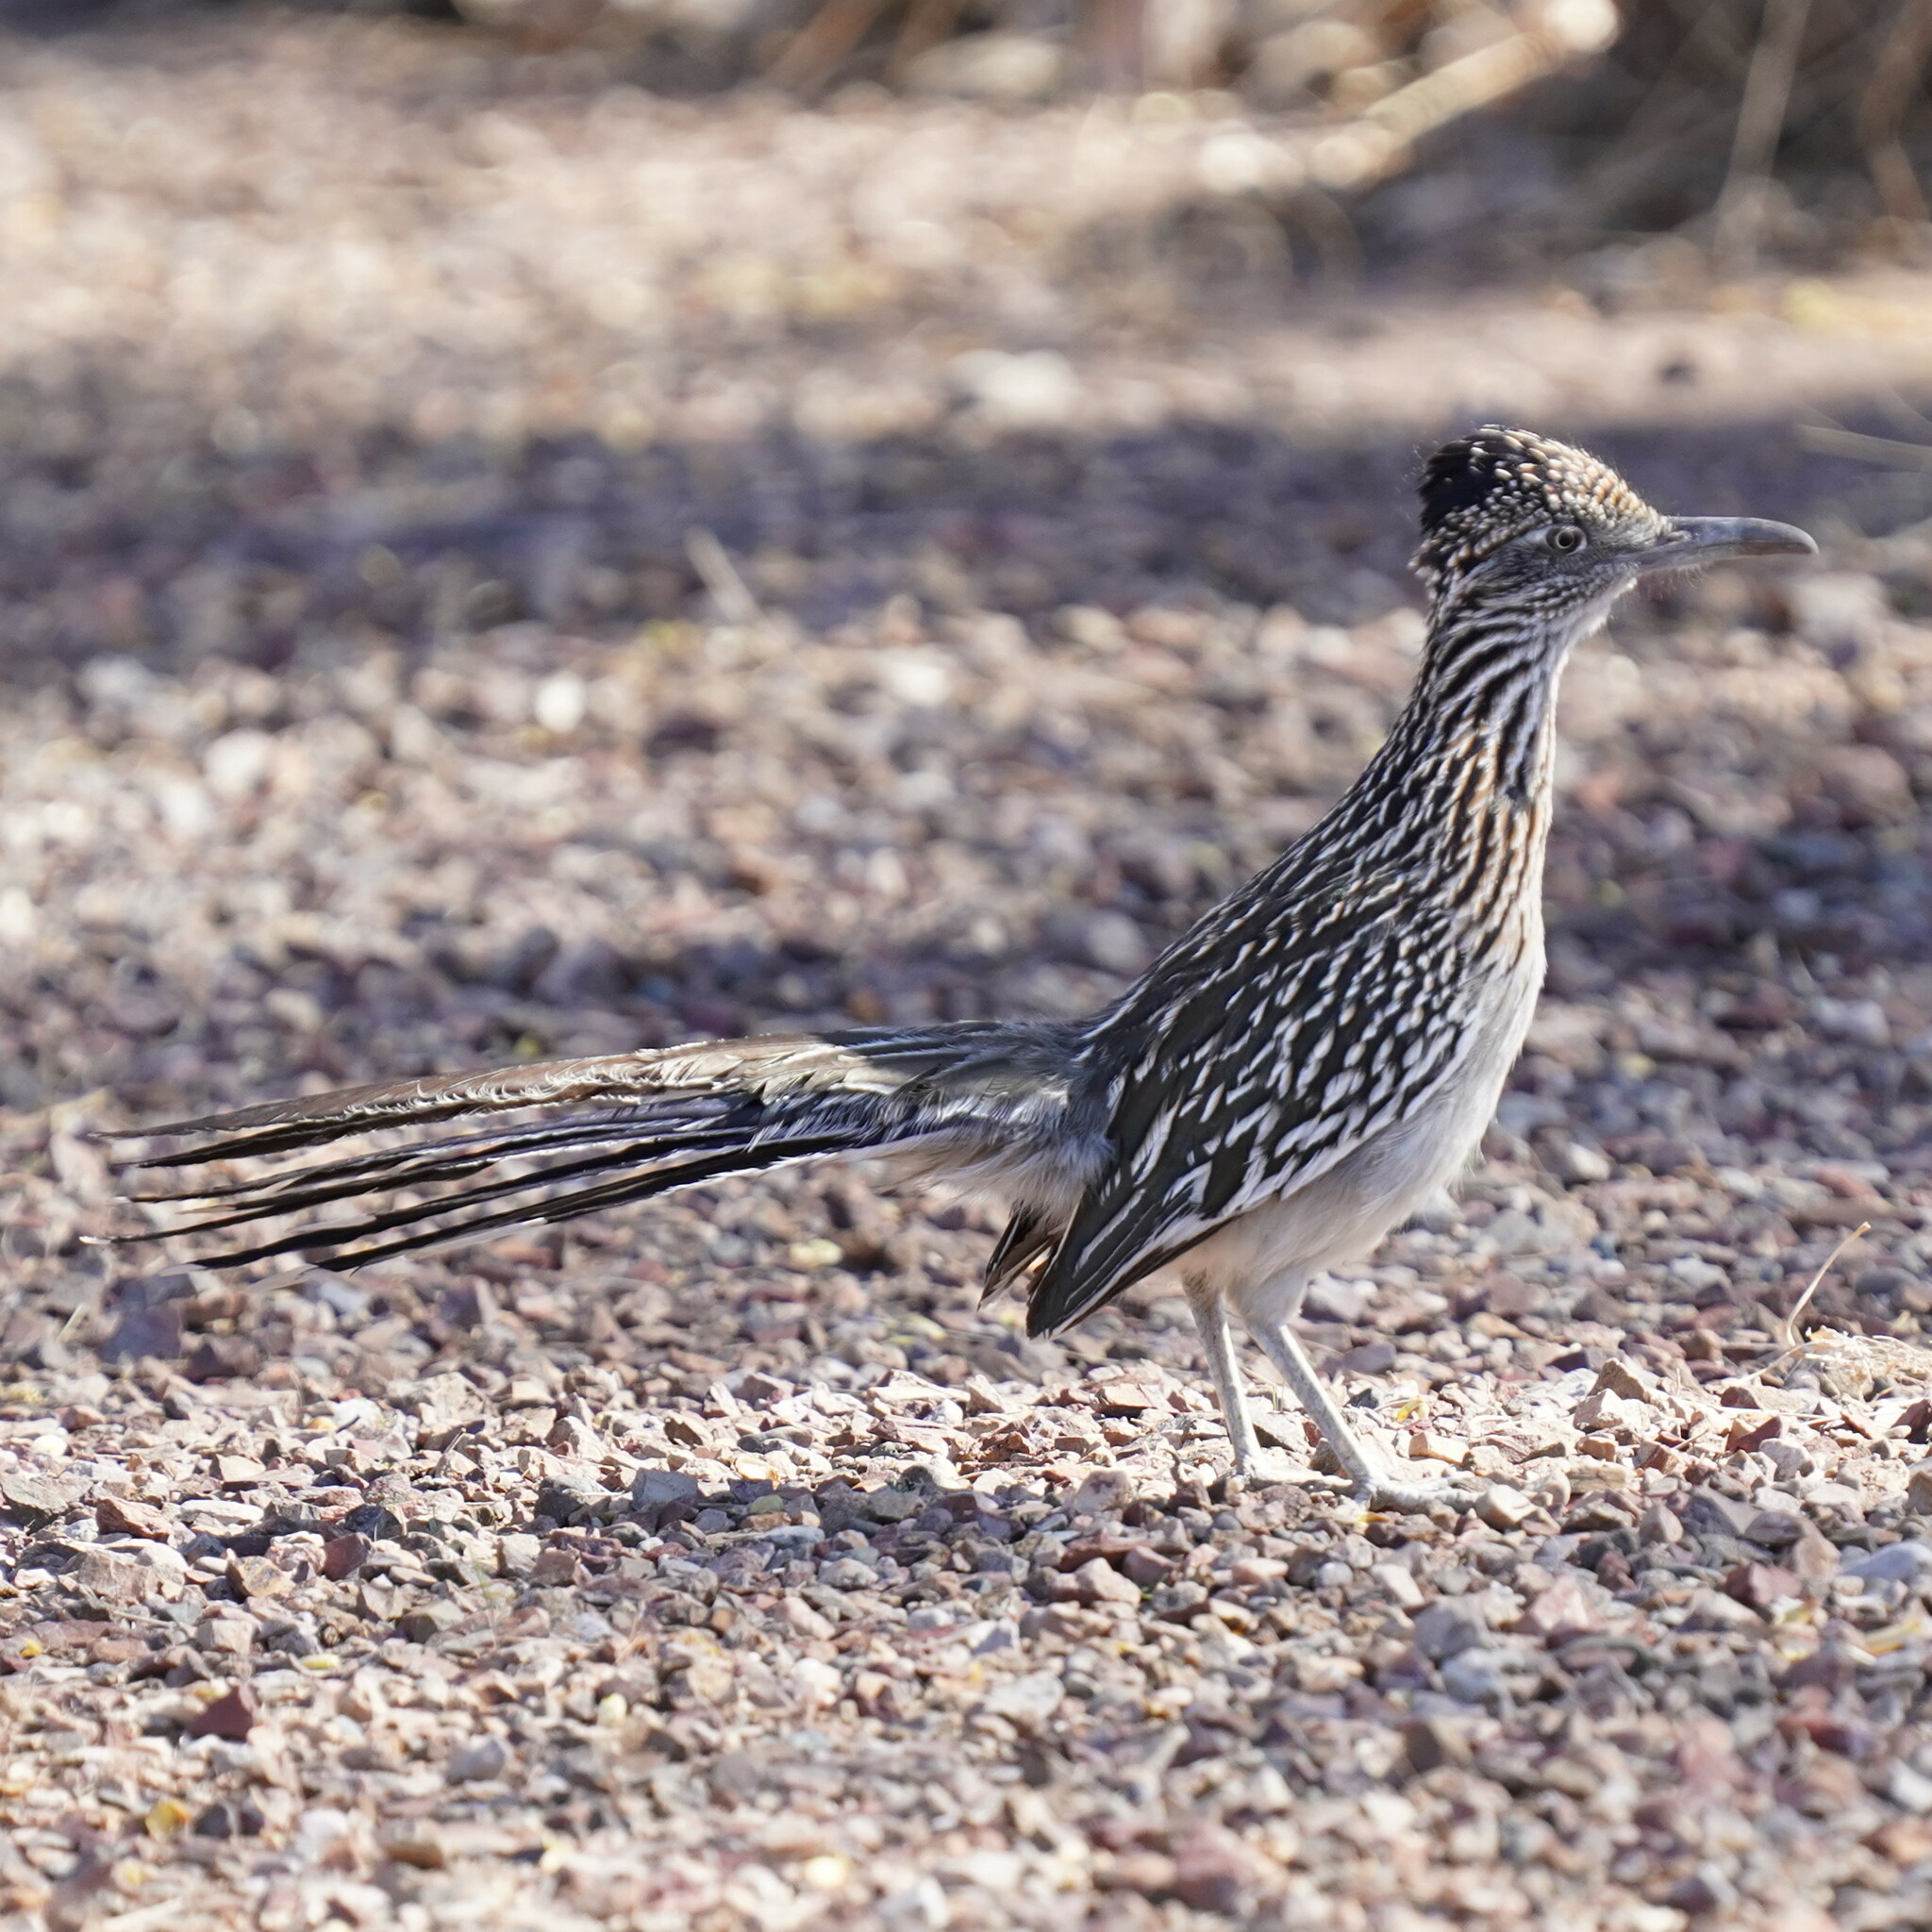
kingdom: Animalia
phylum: Chordata
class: Aves
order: Cuculiformes
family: Cuculidae
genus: Geococcyx
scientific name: Geococcyx californianus
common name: Greater roadrunner
